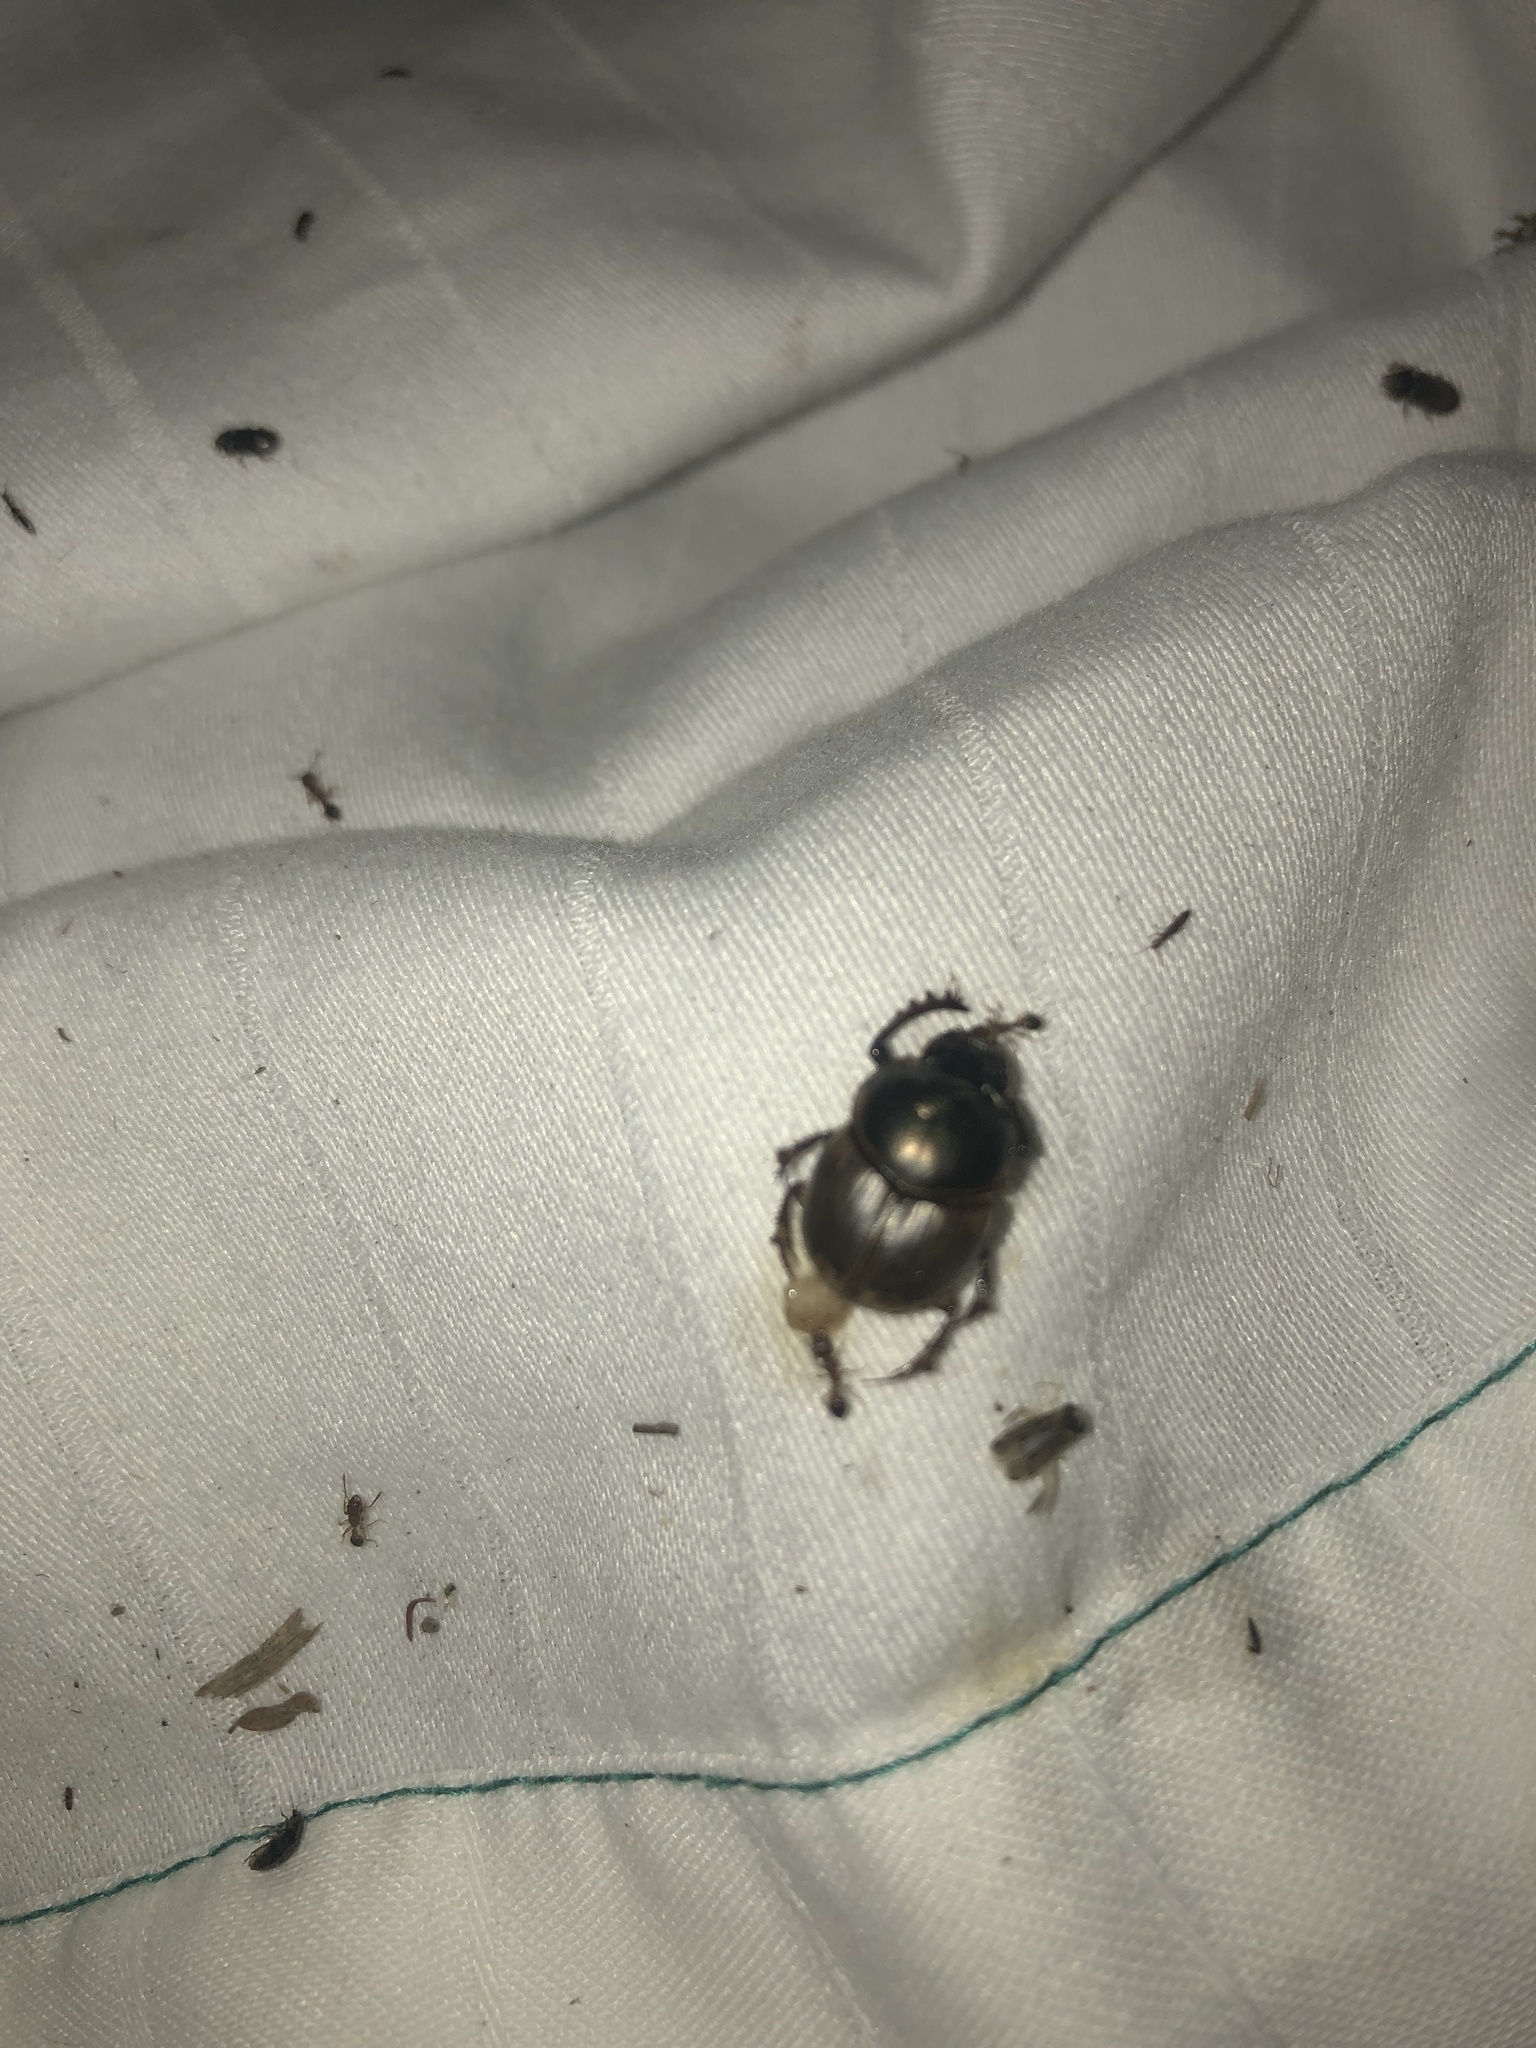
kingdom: Animalia
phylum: Arthropoda
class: Insecta
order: Coleoptera
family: Scarabaeidae
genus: Digitonthophagus
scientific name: Digitonthophagus gazella
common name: Brown dung beetle
